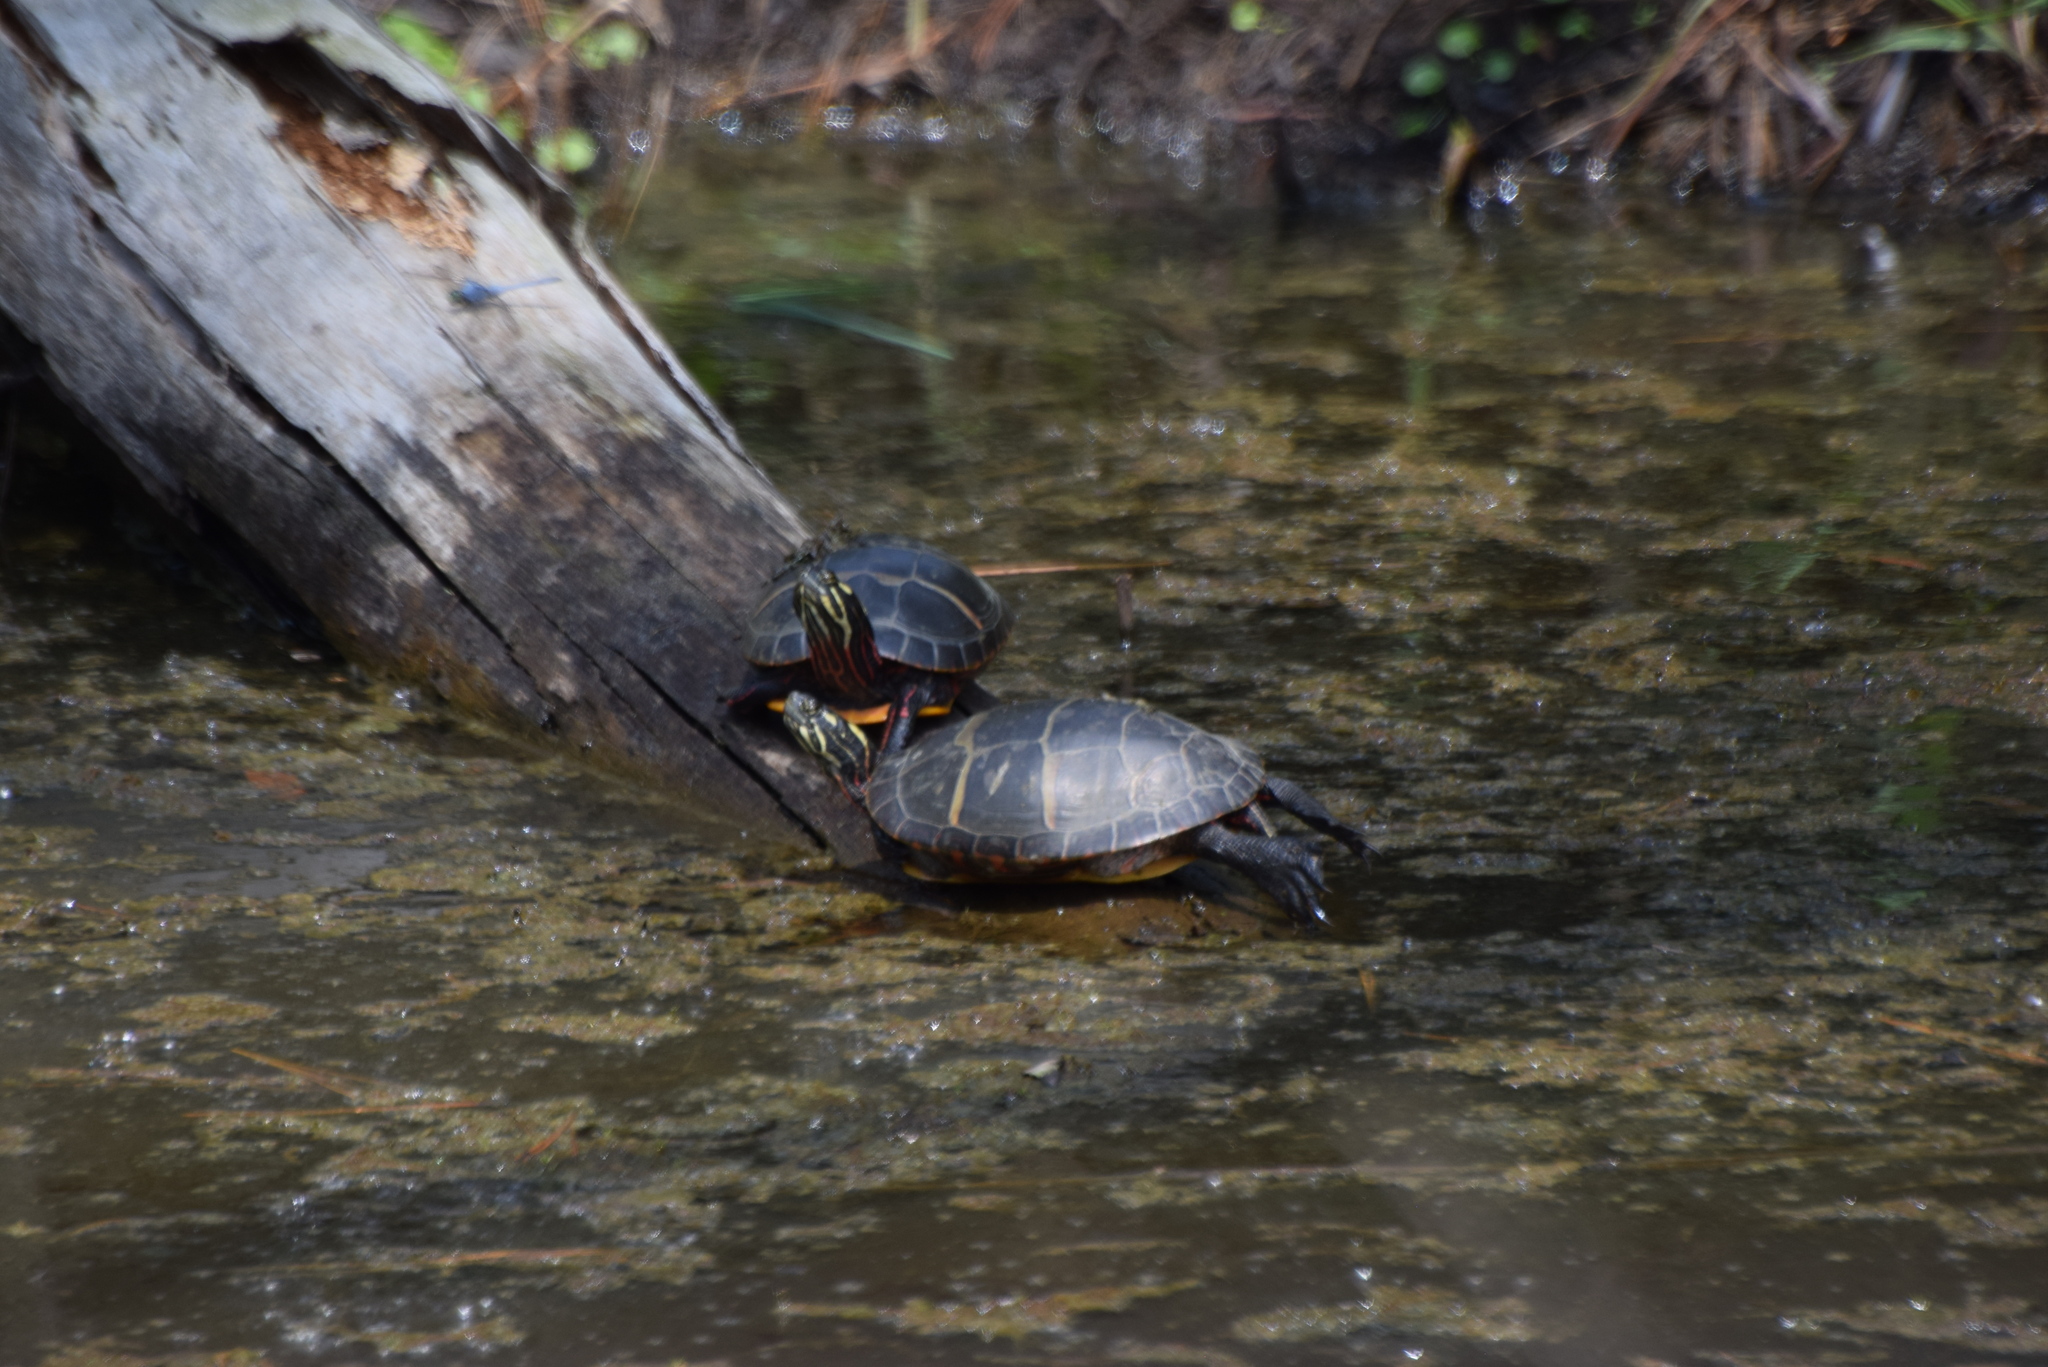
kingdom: Animalia
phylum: Chordata
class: Testudines
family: Emydidae
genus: Chrysemys
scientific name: Chrysemys picta
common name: Painted turtle
